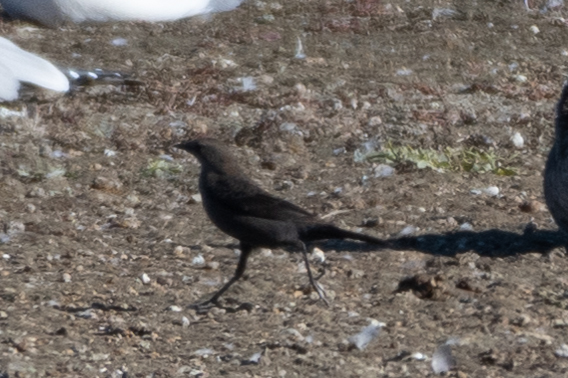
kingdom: Animalia
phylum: Chordata
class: Aves
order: Passeriformes
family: Icteridae
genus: Euphagus
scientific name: Euphagus cyanocephalus
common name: Brewer's blackbird
